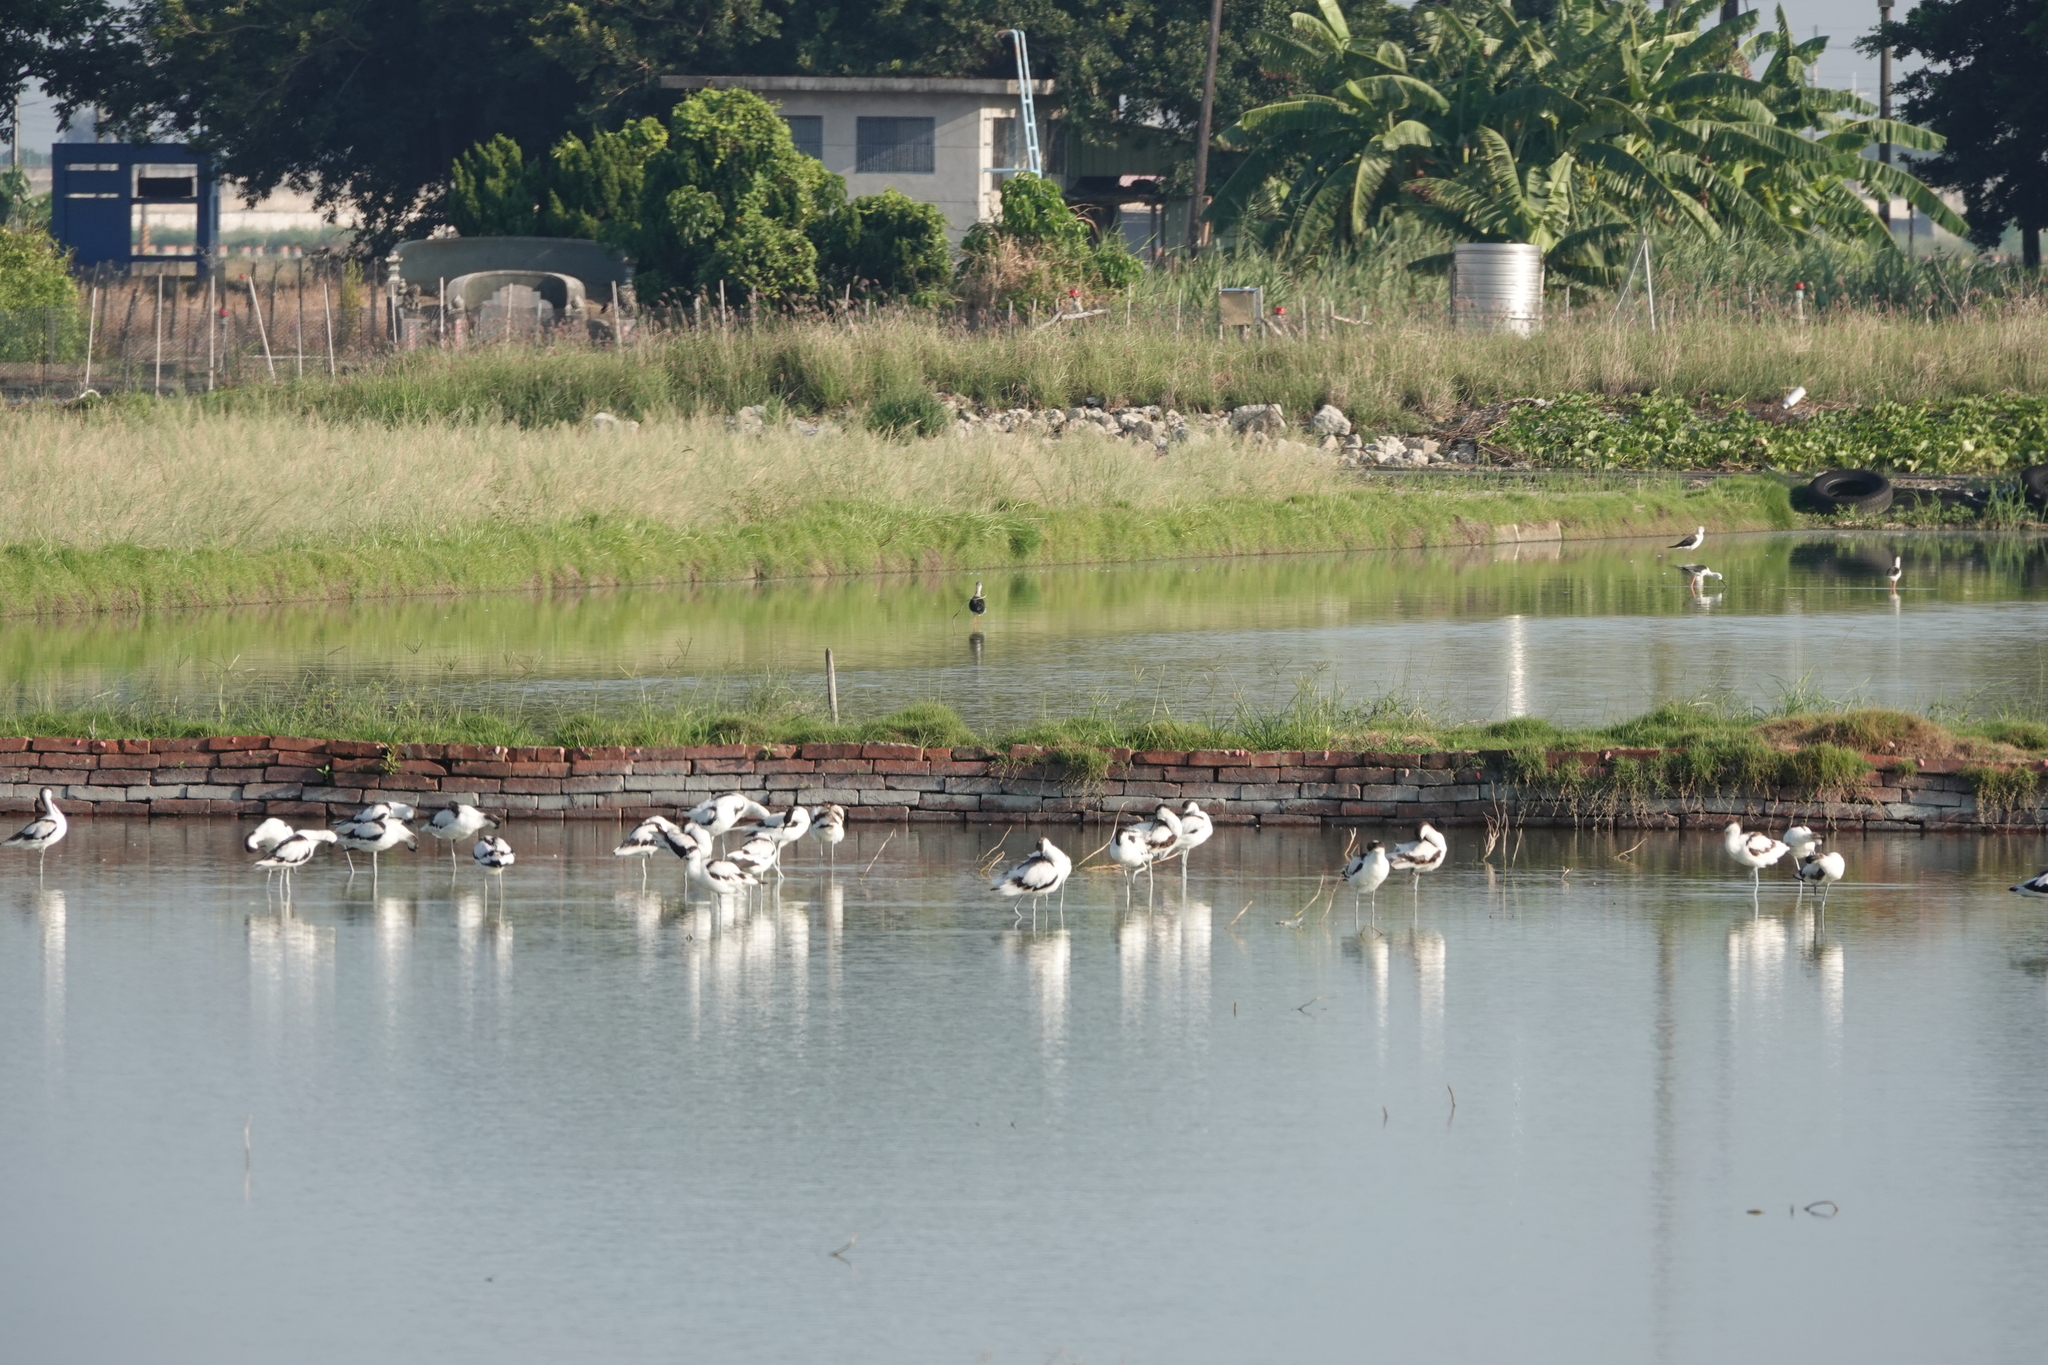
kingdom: Animalia
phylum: Chordata
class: Aves
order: Charadriiformes
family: Recurvirostridae
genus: Recurvirostra
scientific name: Recurvirostra avosetta
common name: Pied avocet
